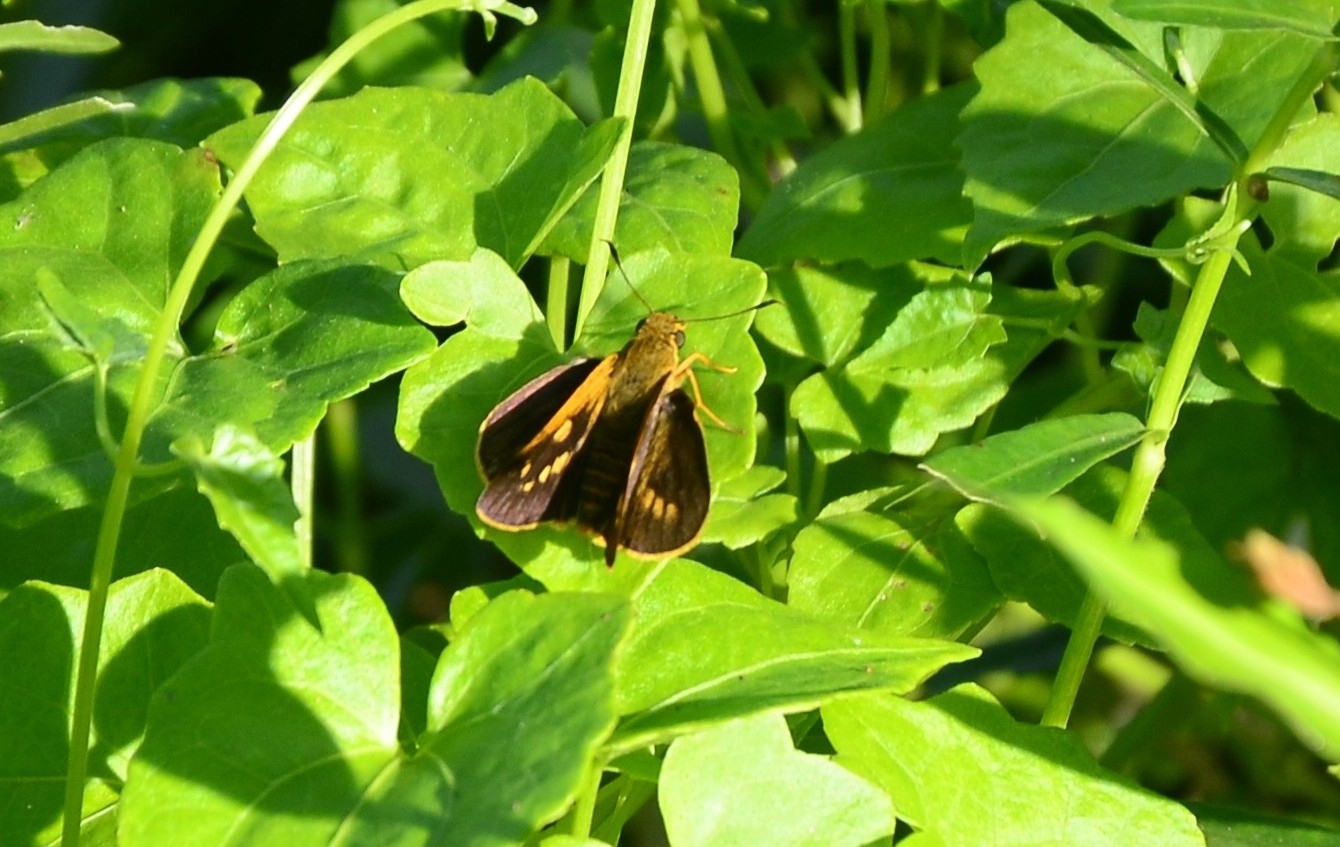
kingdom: Animalia
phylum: Arthropoda
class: Insecta
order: Lepidoptera
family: Hesperiidae
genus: Cephrenes
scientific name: Cephrenes
